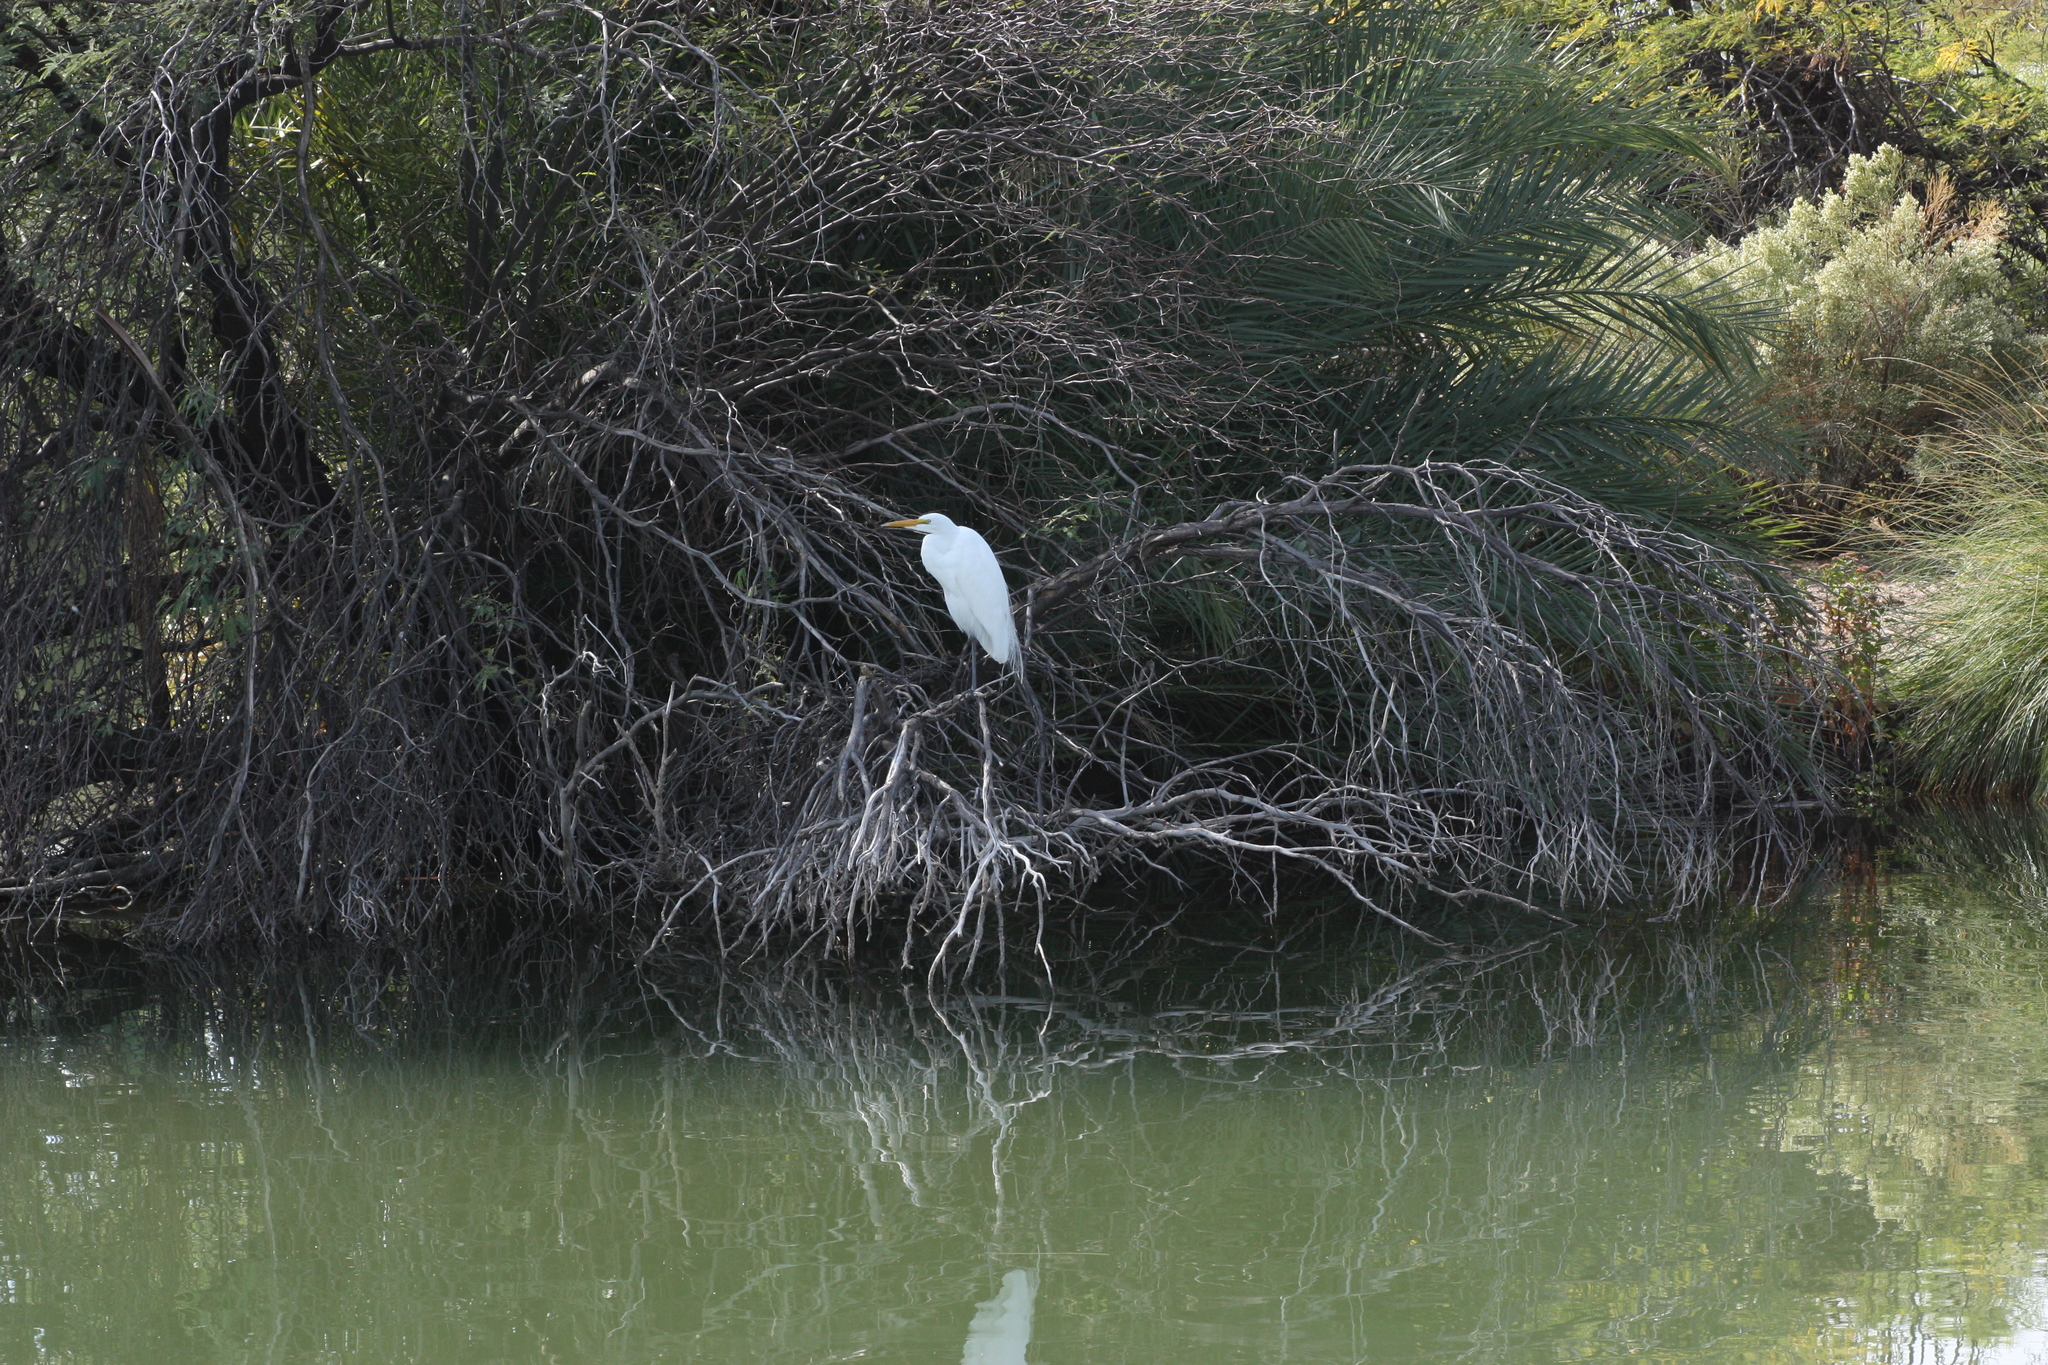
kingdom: Animalia
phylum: Chordata
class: Aves
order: Pelecaniformes
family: Ardeidae
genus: Ardea
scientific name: Ardea alba
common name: Great egret
